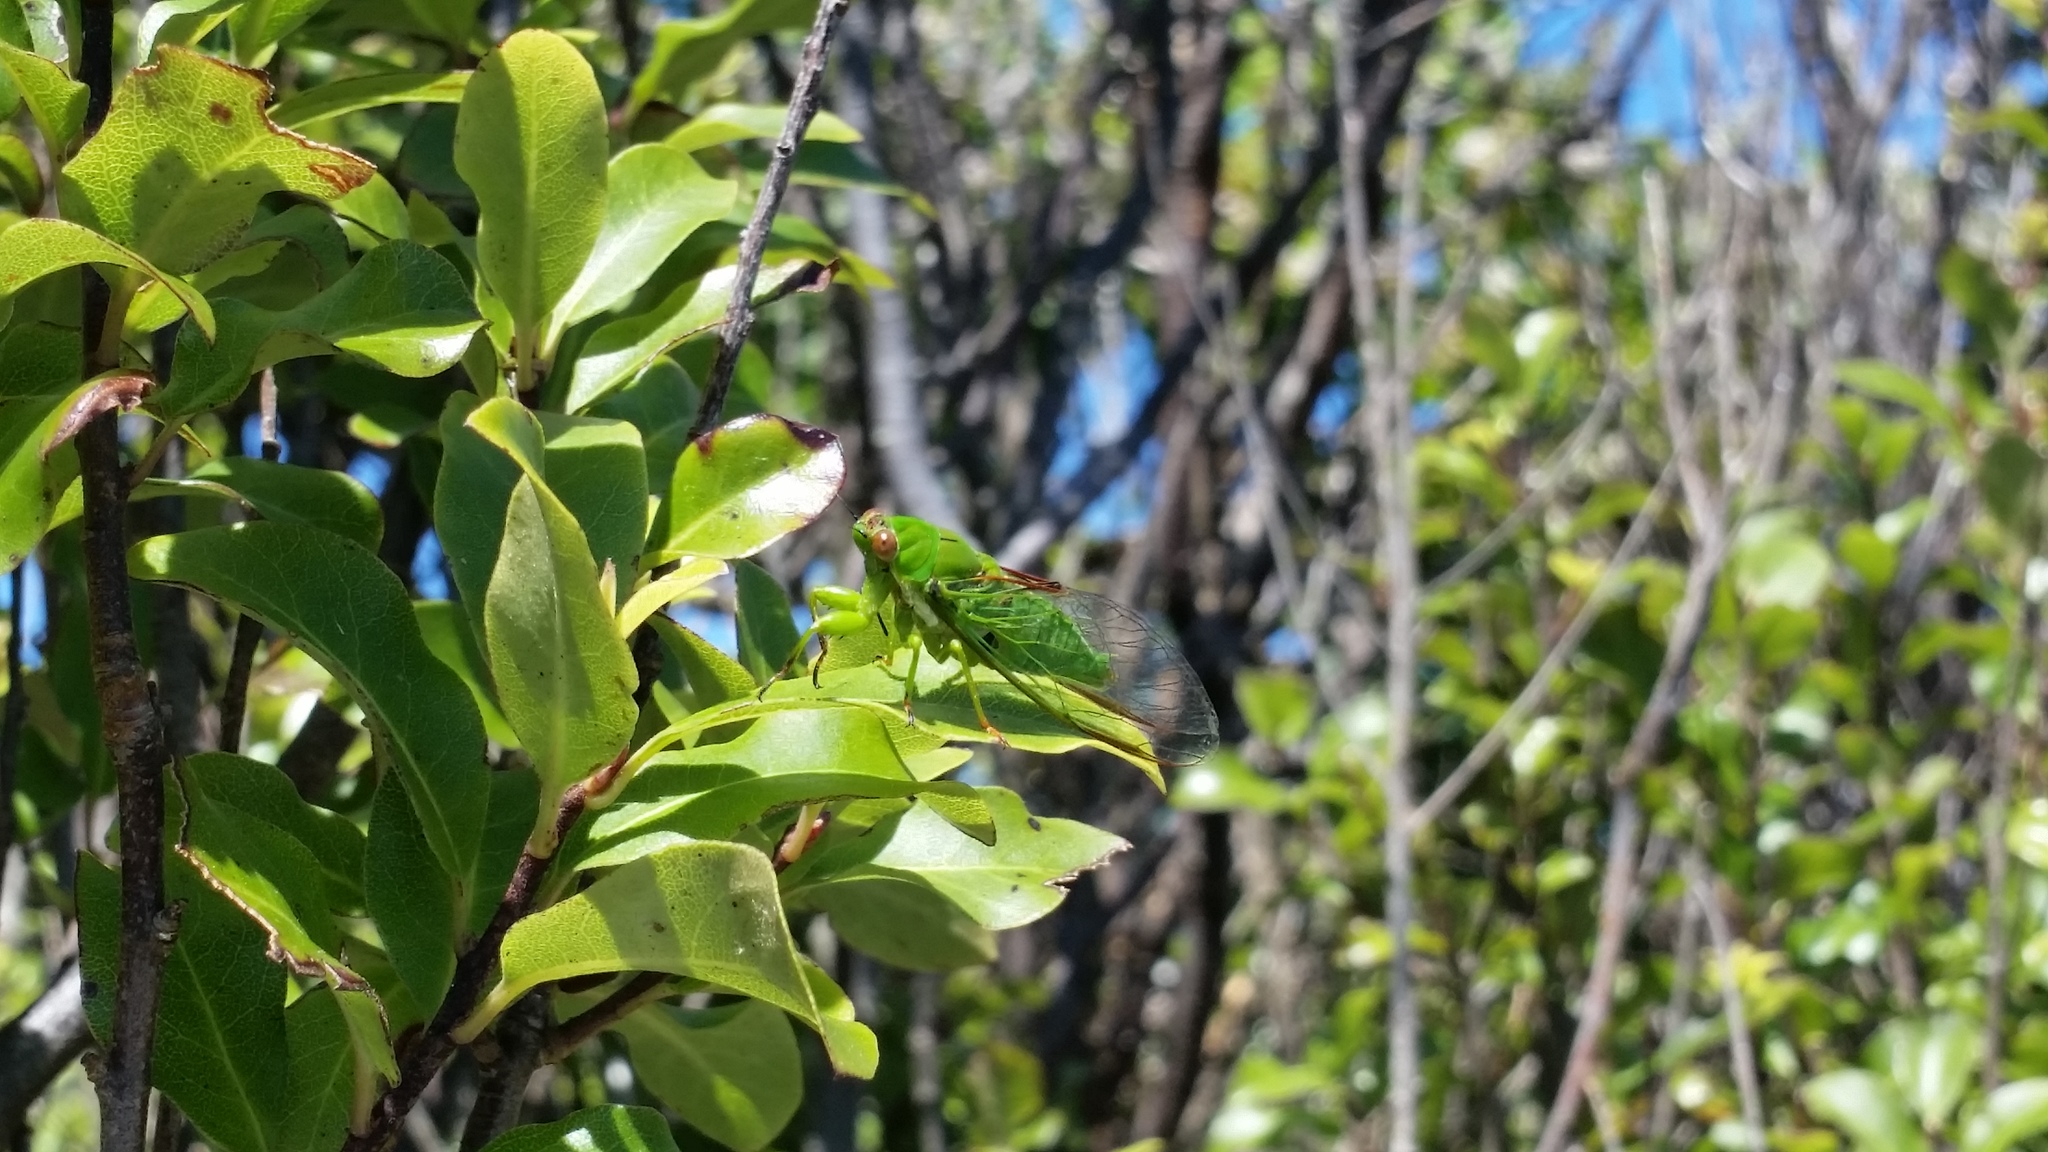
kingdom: Animalia
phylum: Arthropoda
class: Insecta
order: Hemiptera
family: Cicadidae
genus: Kikihia
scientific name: Kikihia ochrina
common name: April green cicada
